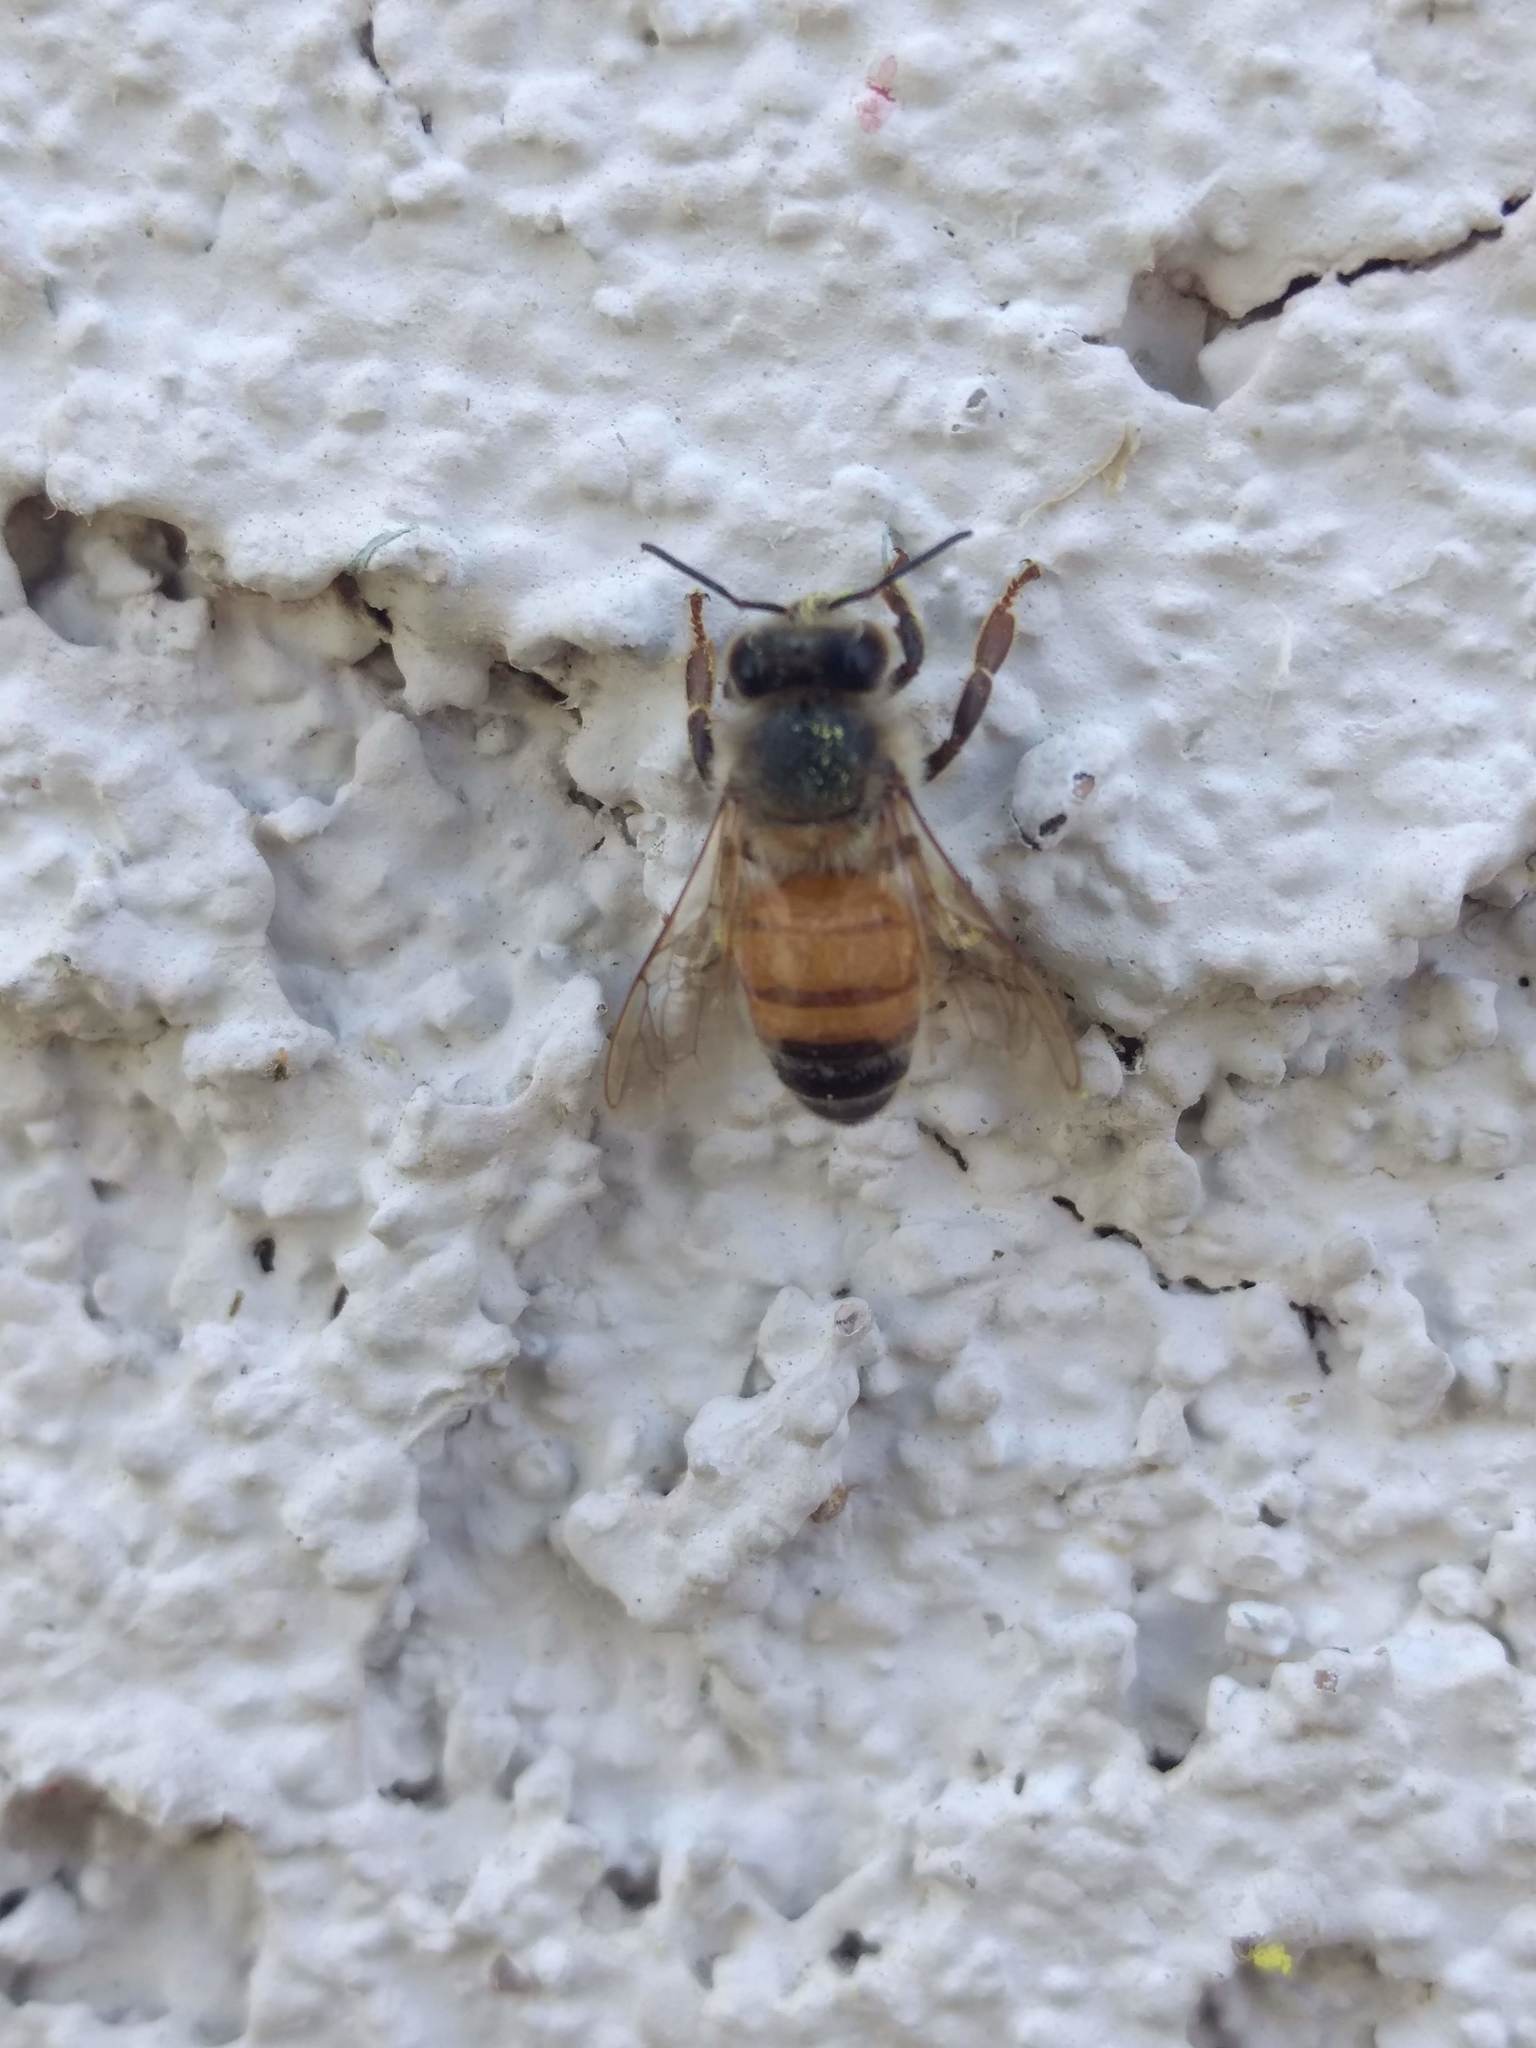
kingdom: Animalia
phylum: Arthropoda
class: Insecta
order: Hymenoptera
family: Apidae
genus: Apis
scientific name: Apis mellifera
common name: Honey bee
